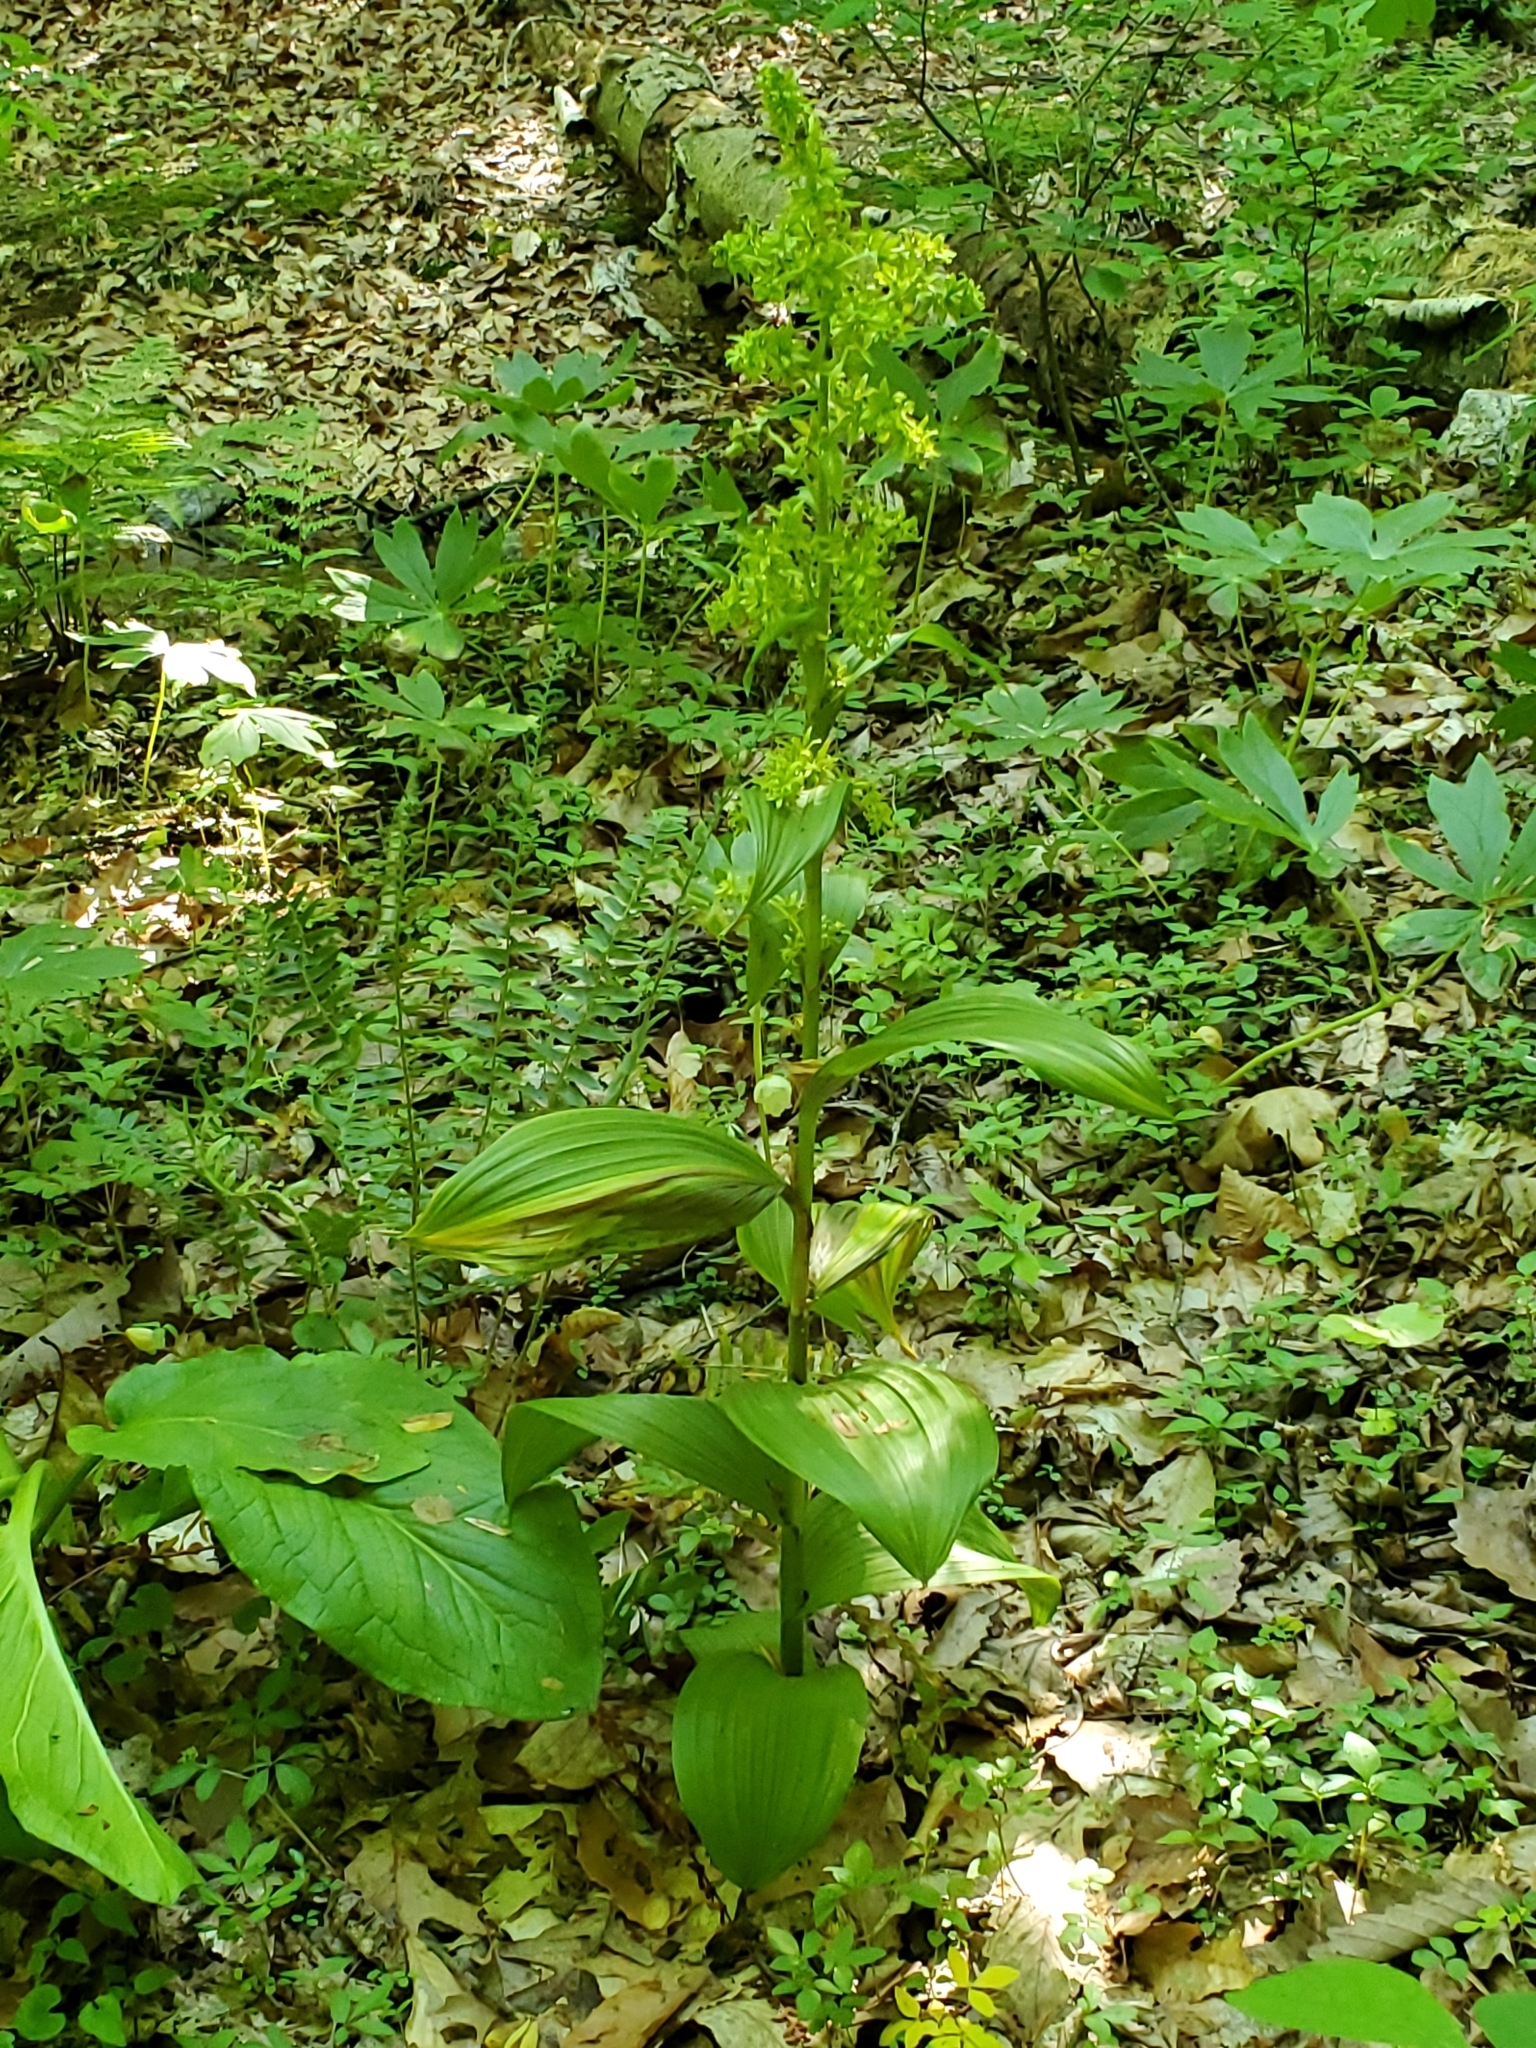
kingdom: Plantae
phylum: Tracheophyta
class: Liliopsida
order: Liliales
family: Melanthiaceae
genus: Veratrum
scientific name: Veratrum viride
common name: American false hellebore
